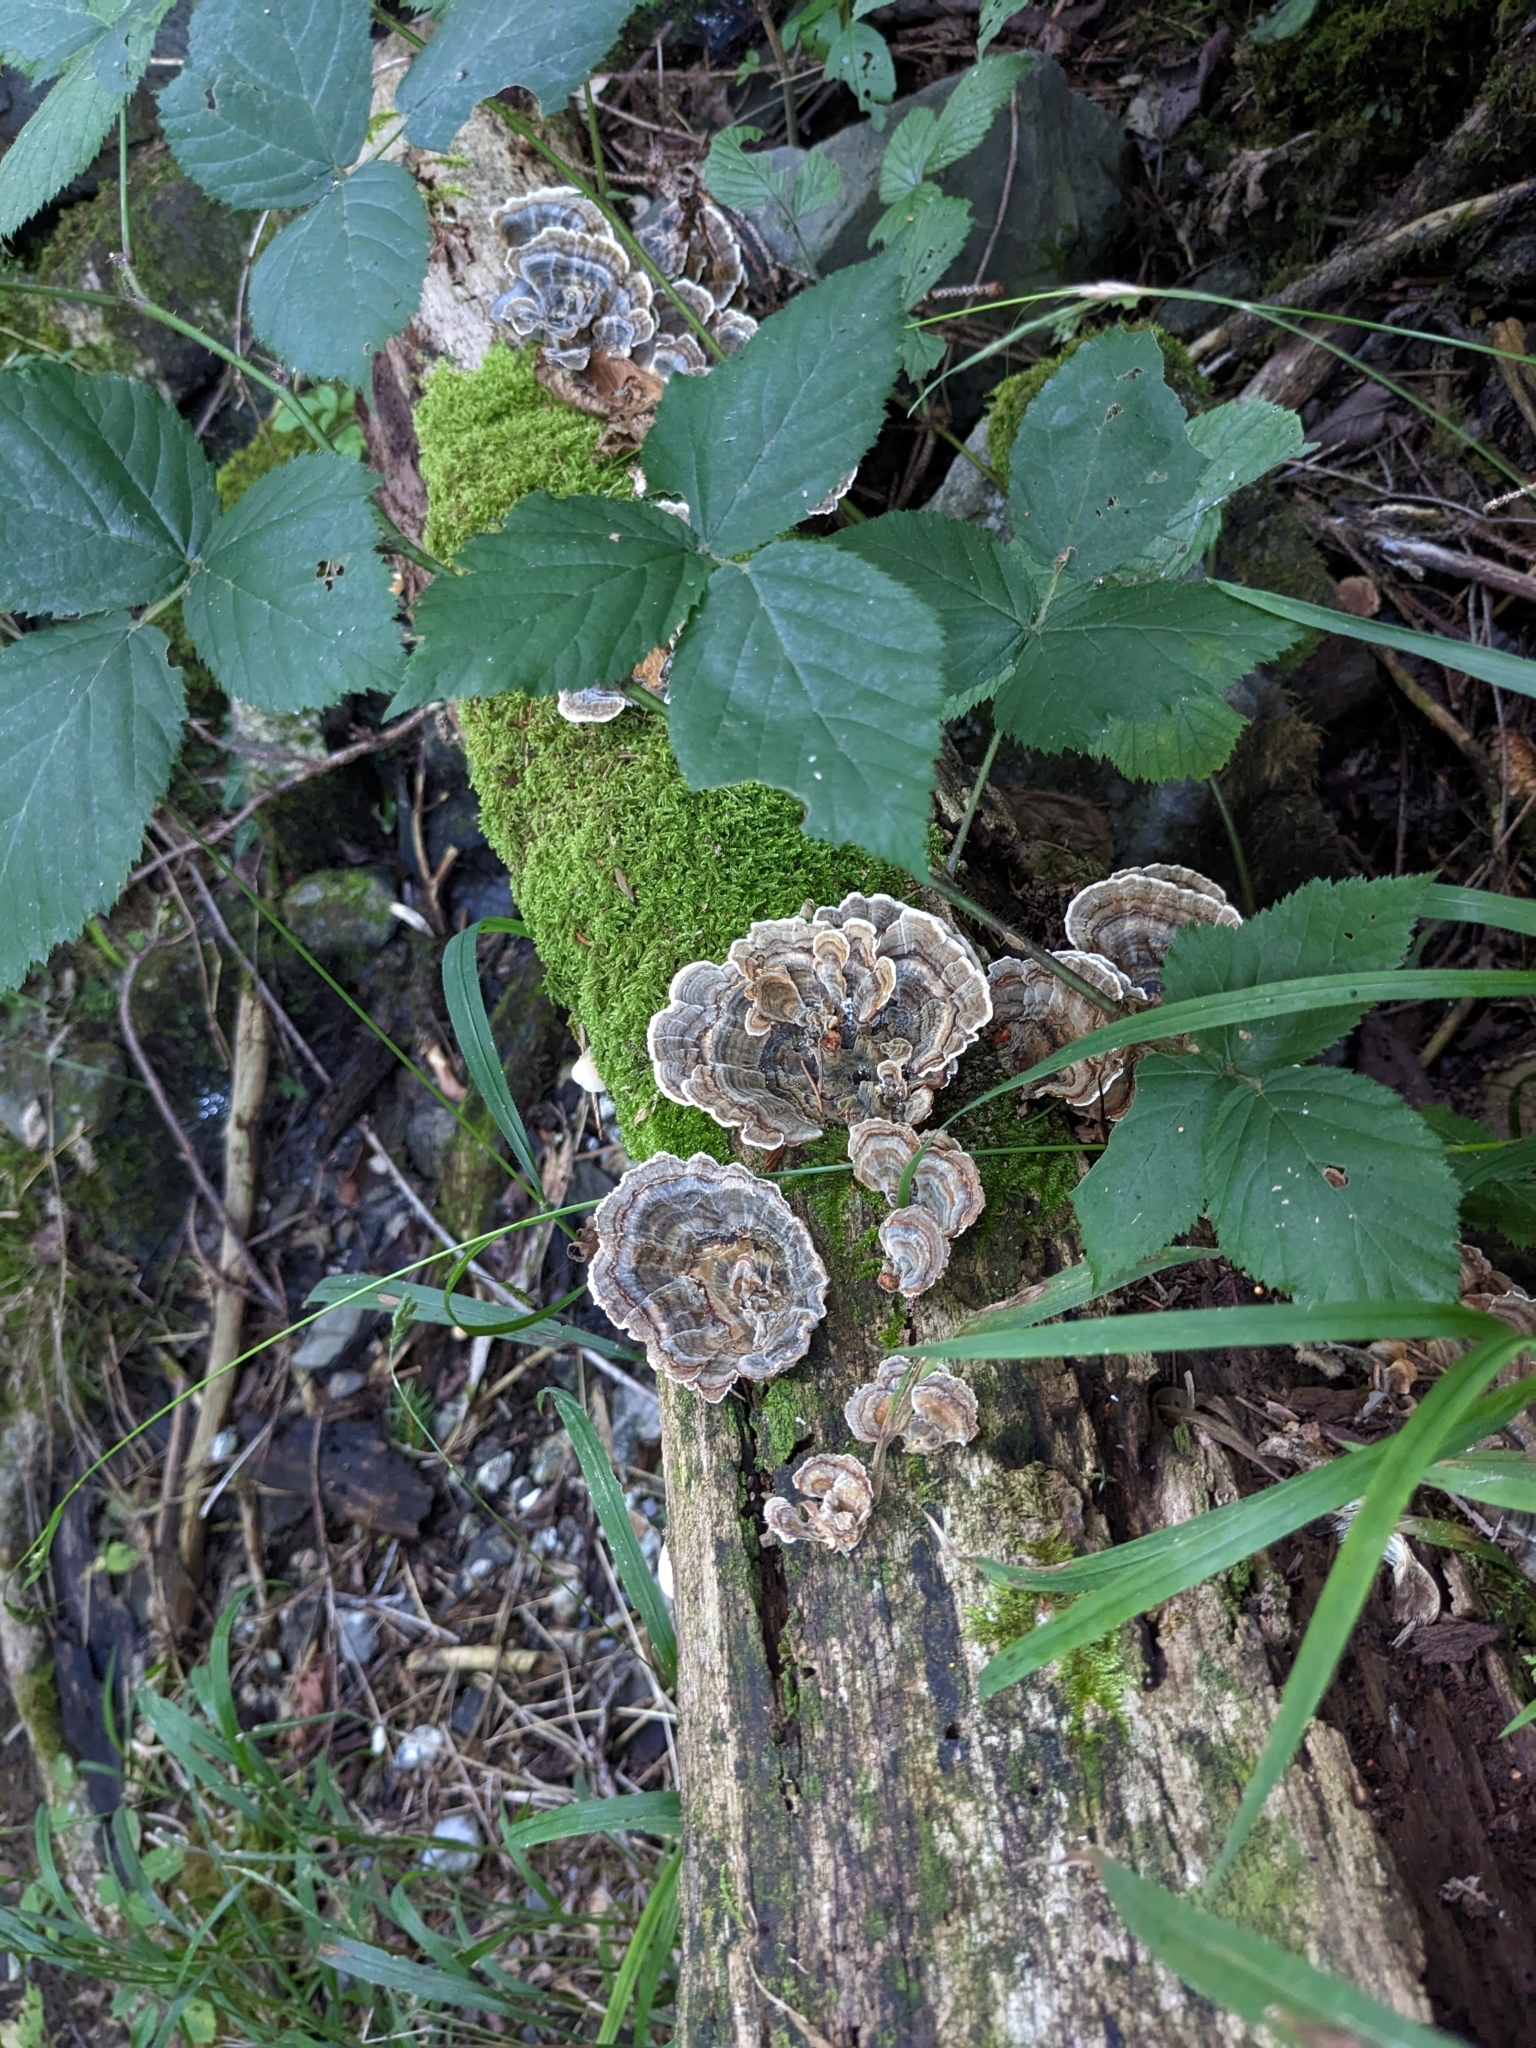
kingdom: Fungi
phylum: Basidiomycota
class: Agaricomycetes
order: Polyporales
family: Polyporaceae
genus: Trametes
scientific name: Trametes versicolor
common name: Turkeytail
